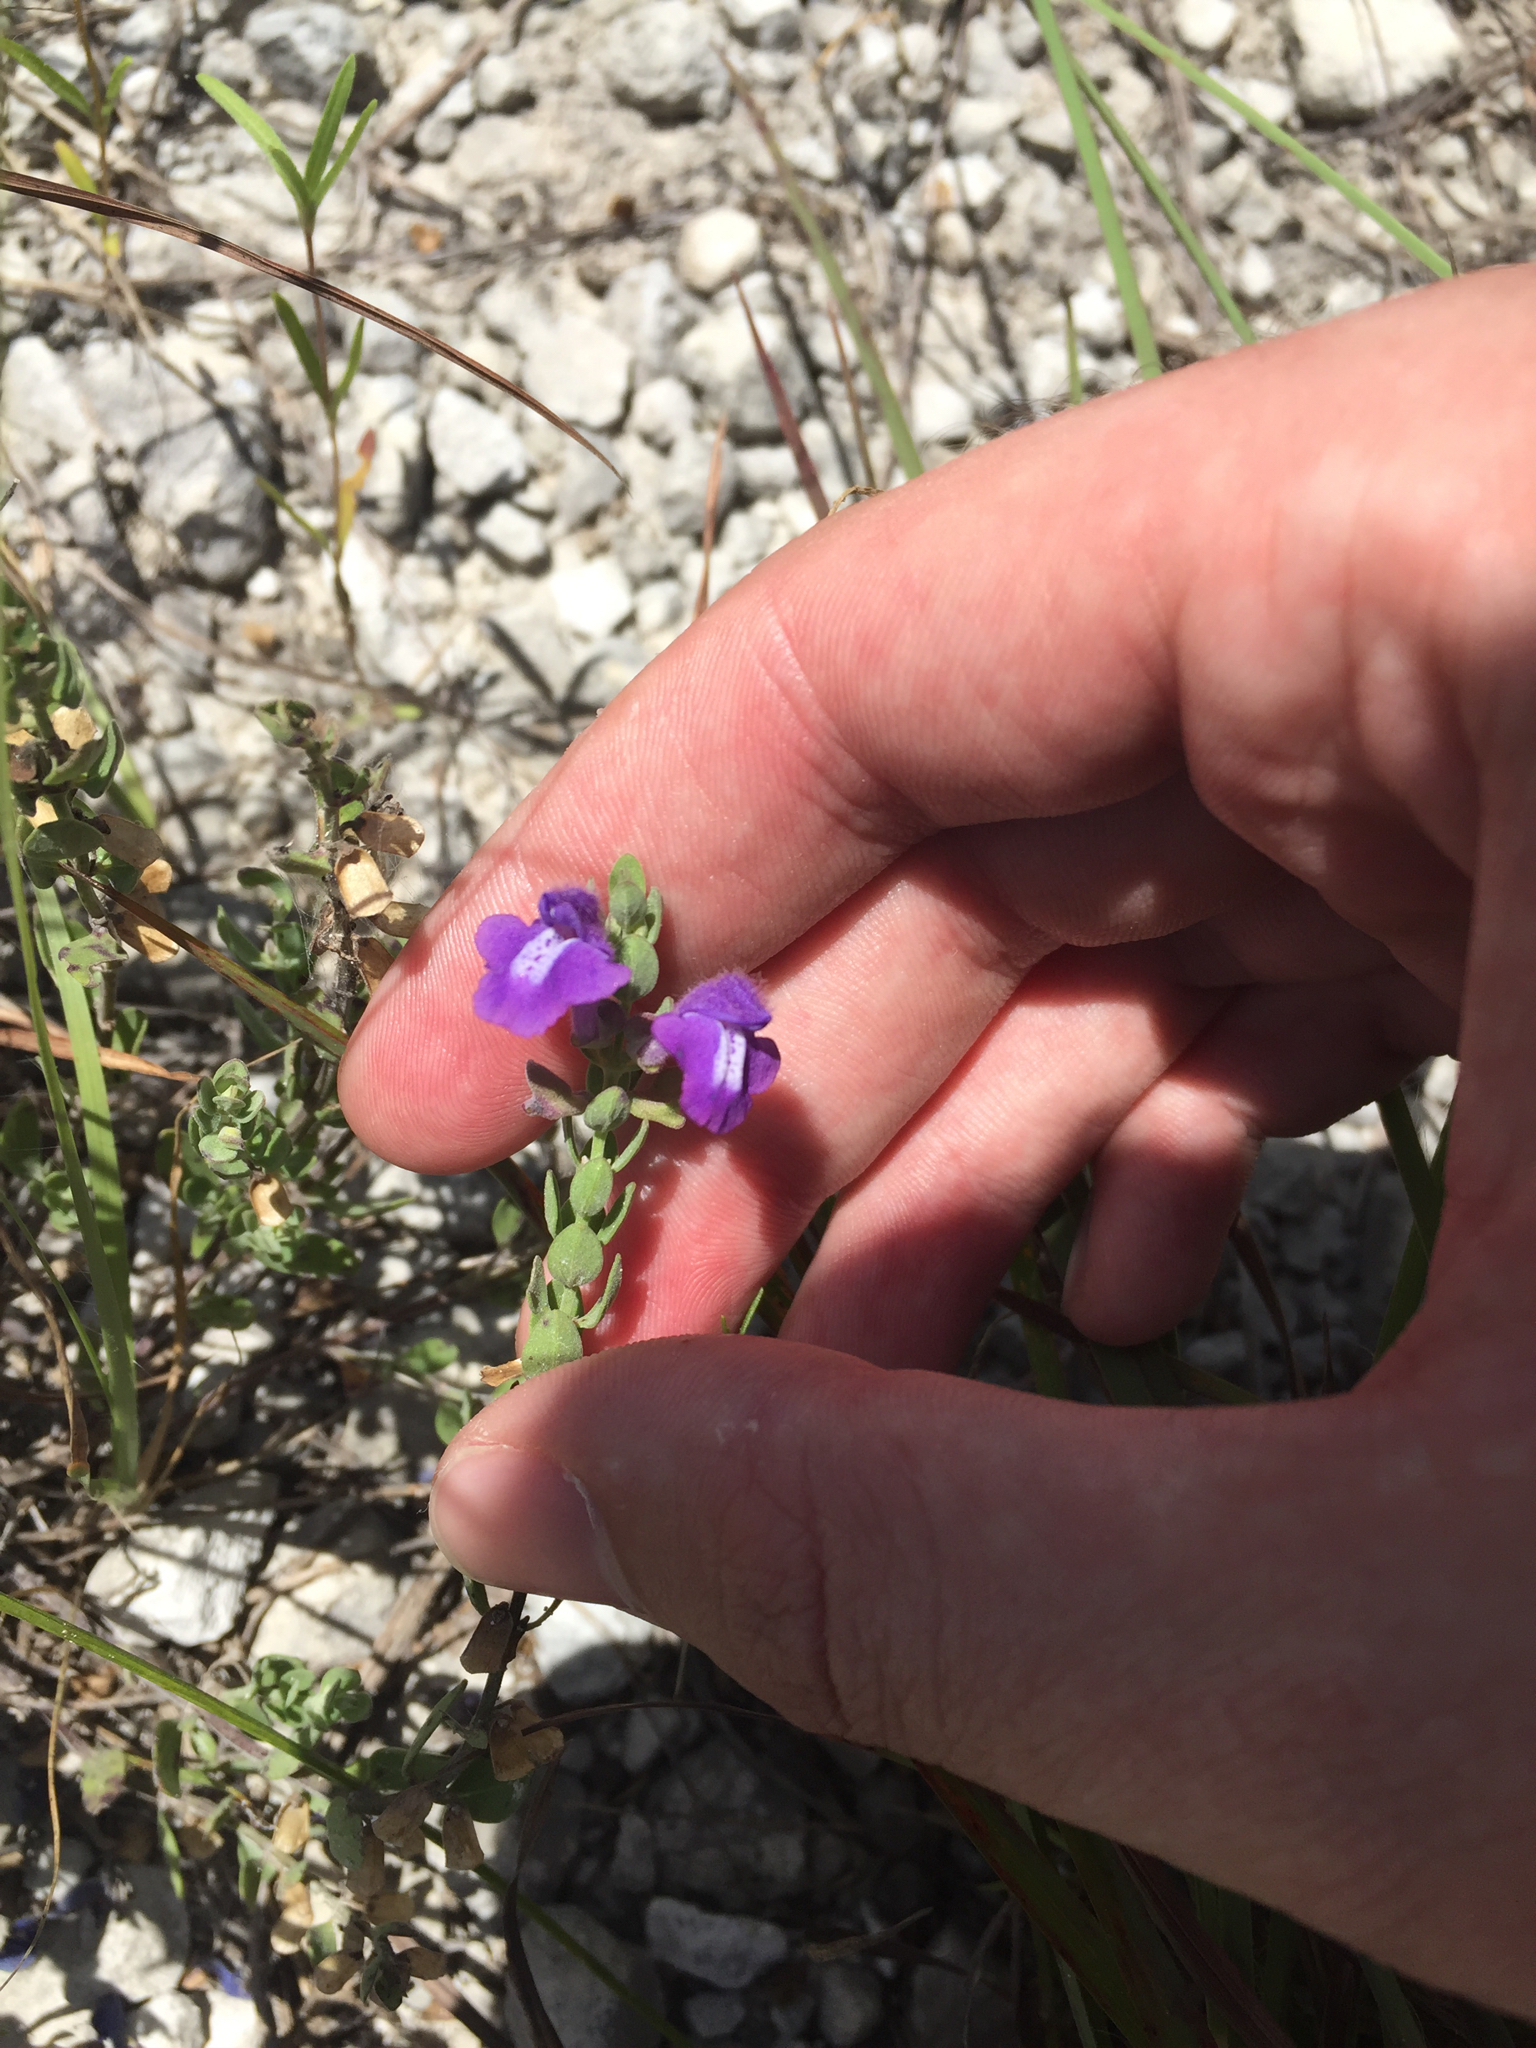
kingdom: Plantae
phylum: Tracheophyta
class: Magnoliopsida
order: Lamiales
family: Lamiaceae
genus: Scutellaria
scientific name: Scutellaria wrightii
